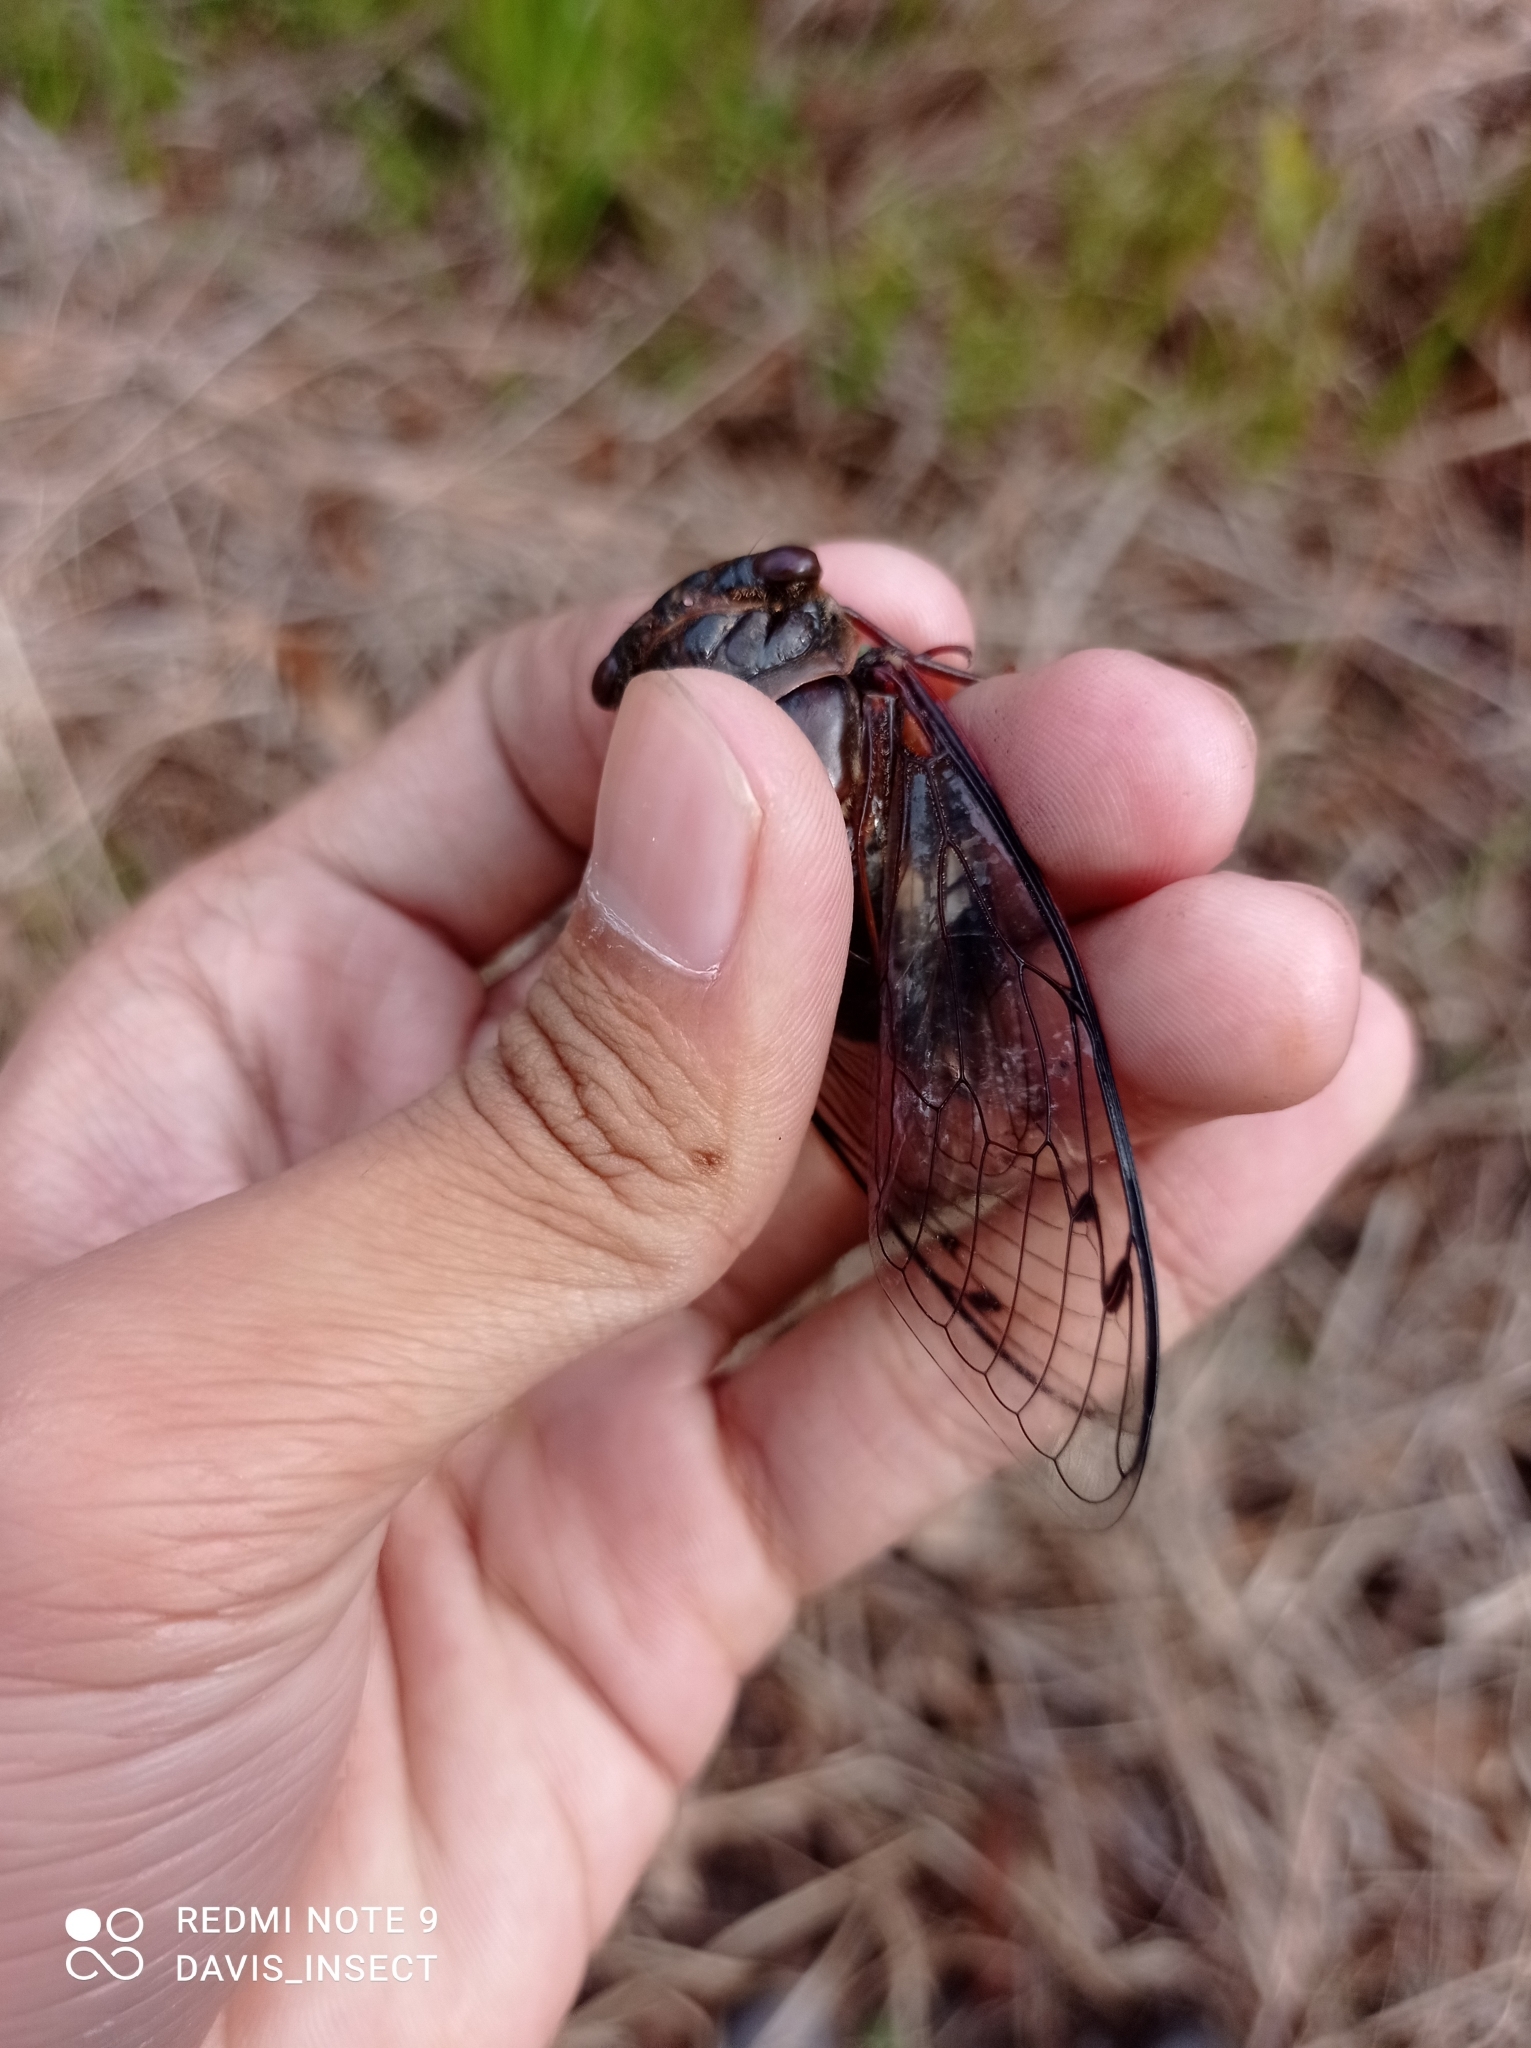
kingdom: Animalia
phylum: Arthropoda
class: Insecta
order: Hemiptera
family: Cicadidae
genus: Cryptotympana
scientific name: Cryptotympana timorica
